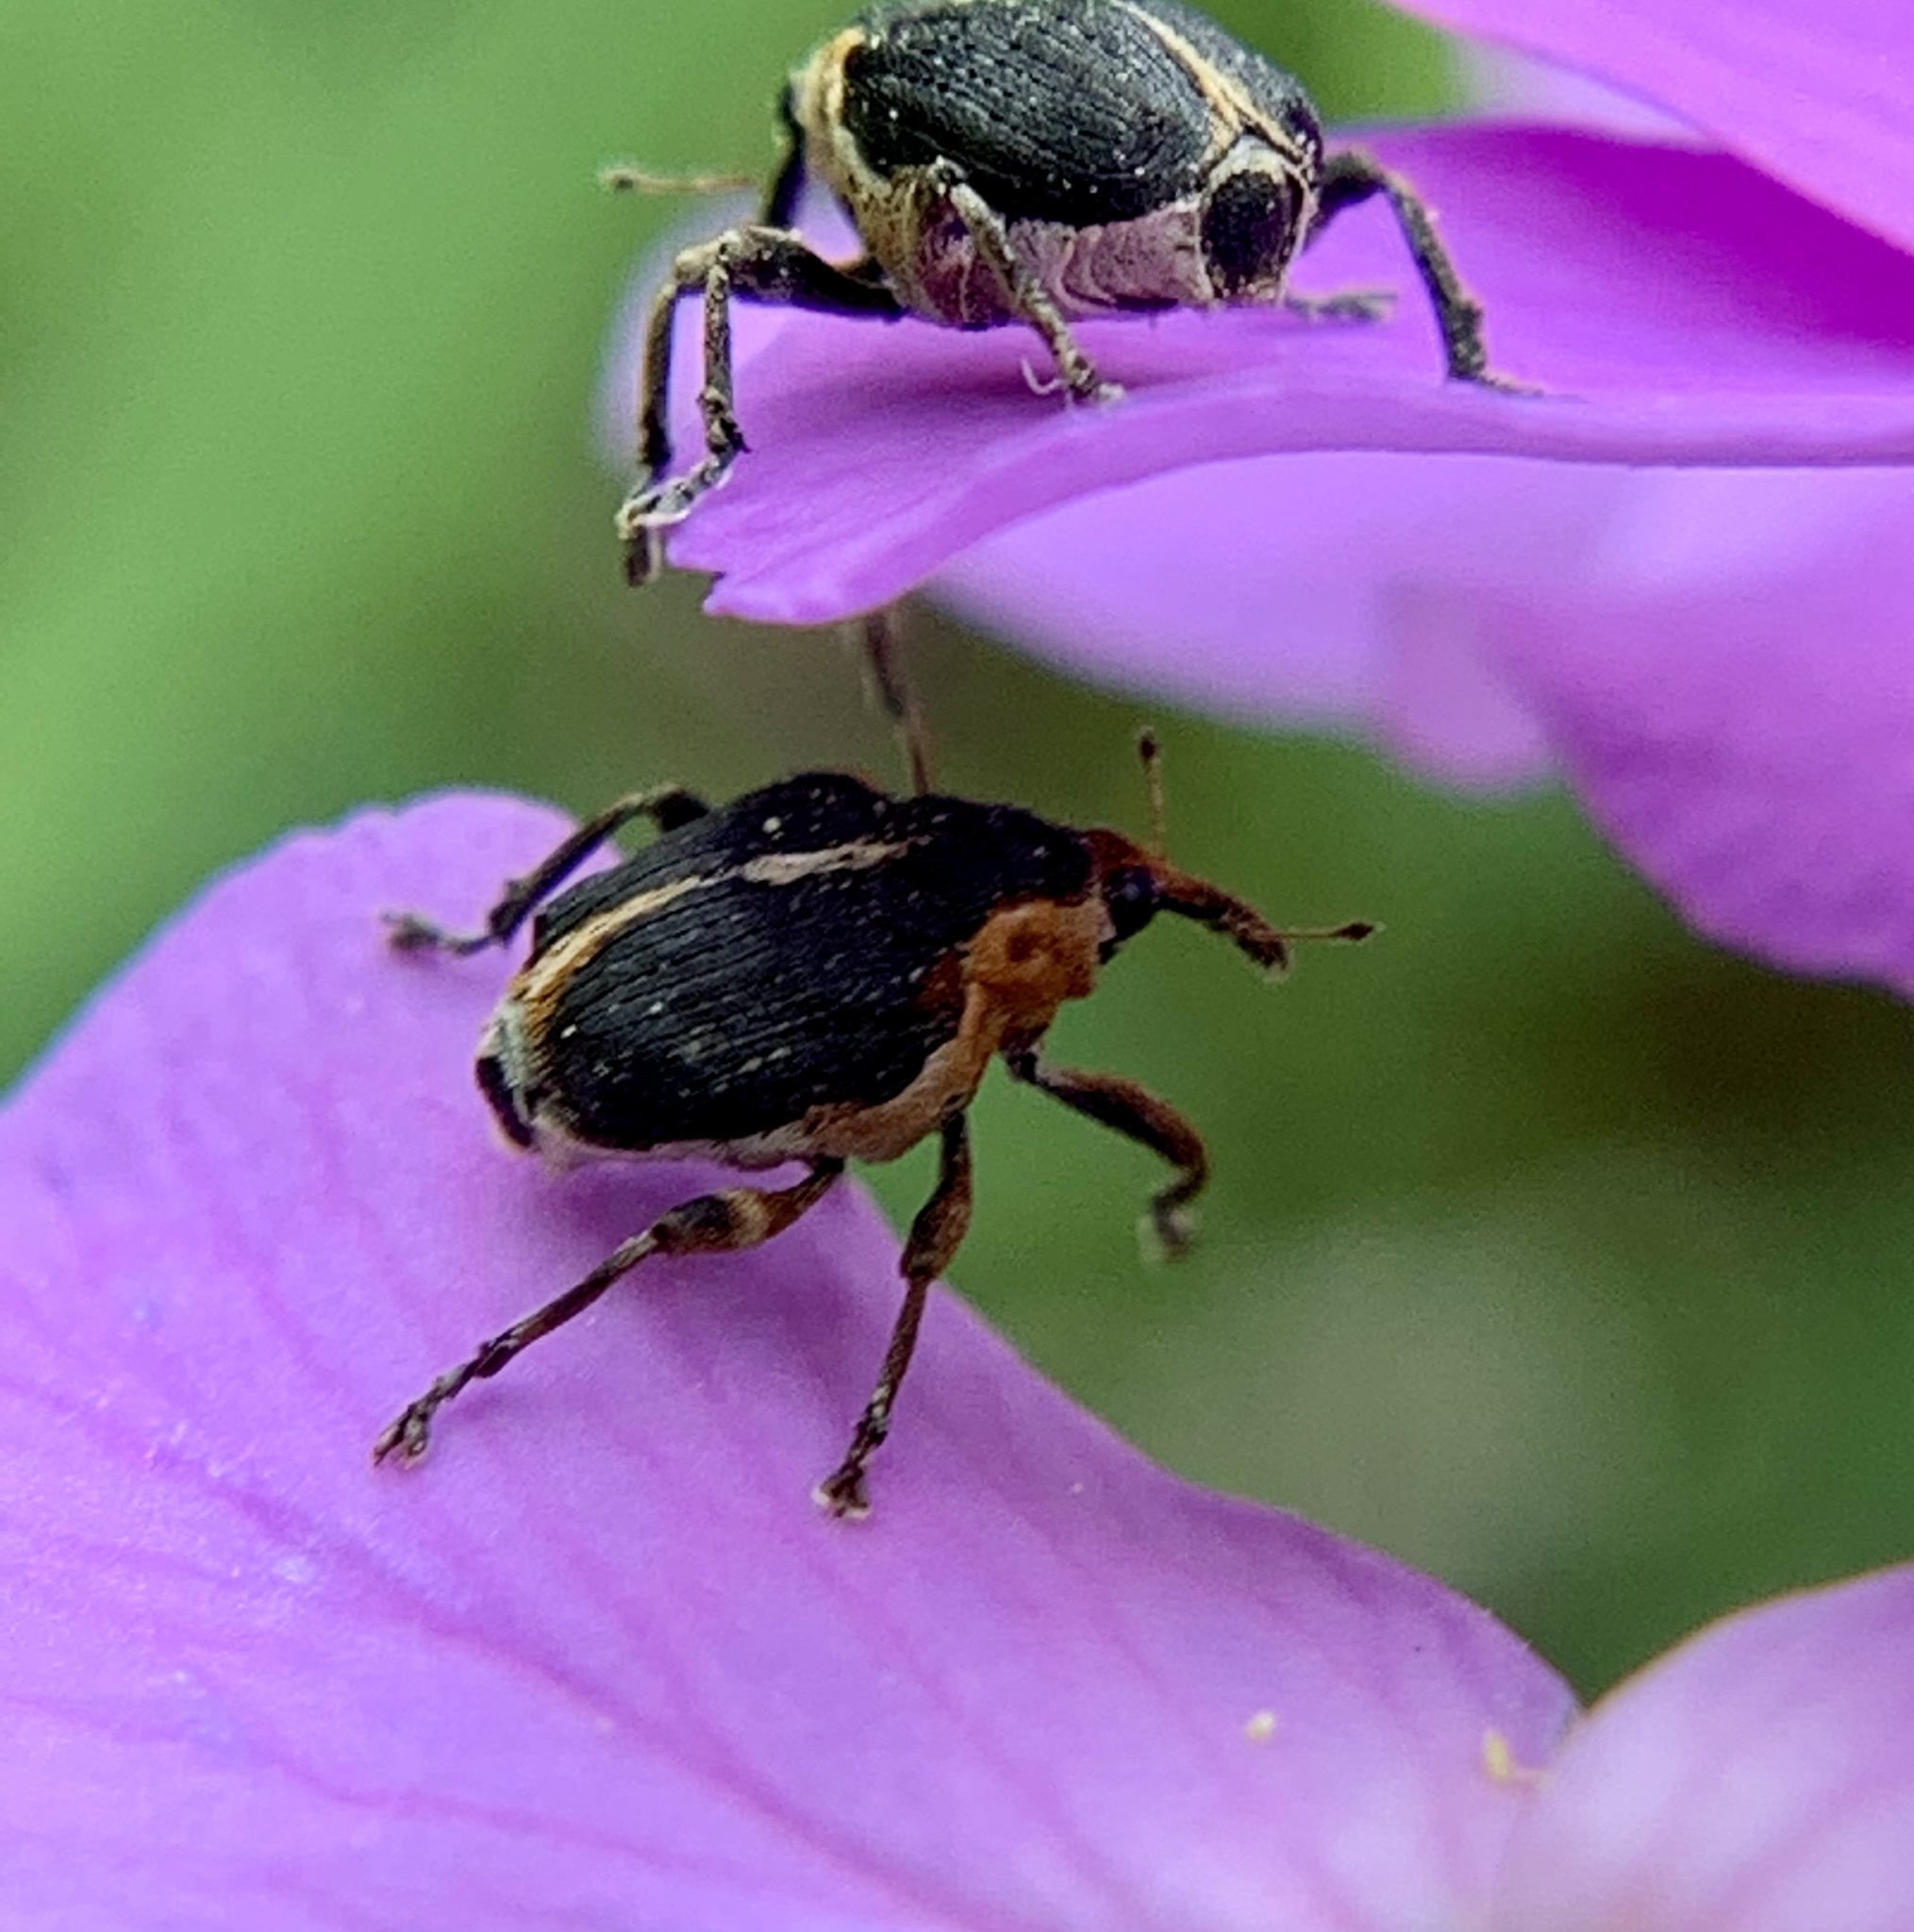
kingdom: Animalia
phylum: Arthropoda
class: Insecta
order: Coleoptera
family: Curculionidae
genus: Mononychus
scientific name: Mononychus vulpeculus
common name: Iris weevil
